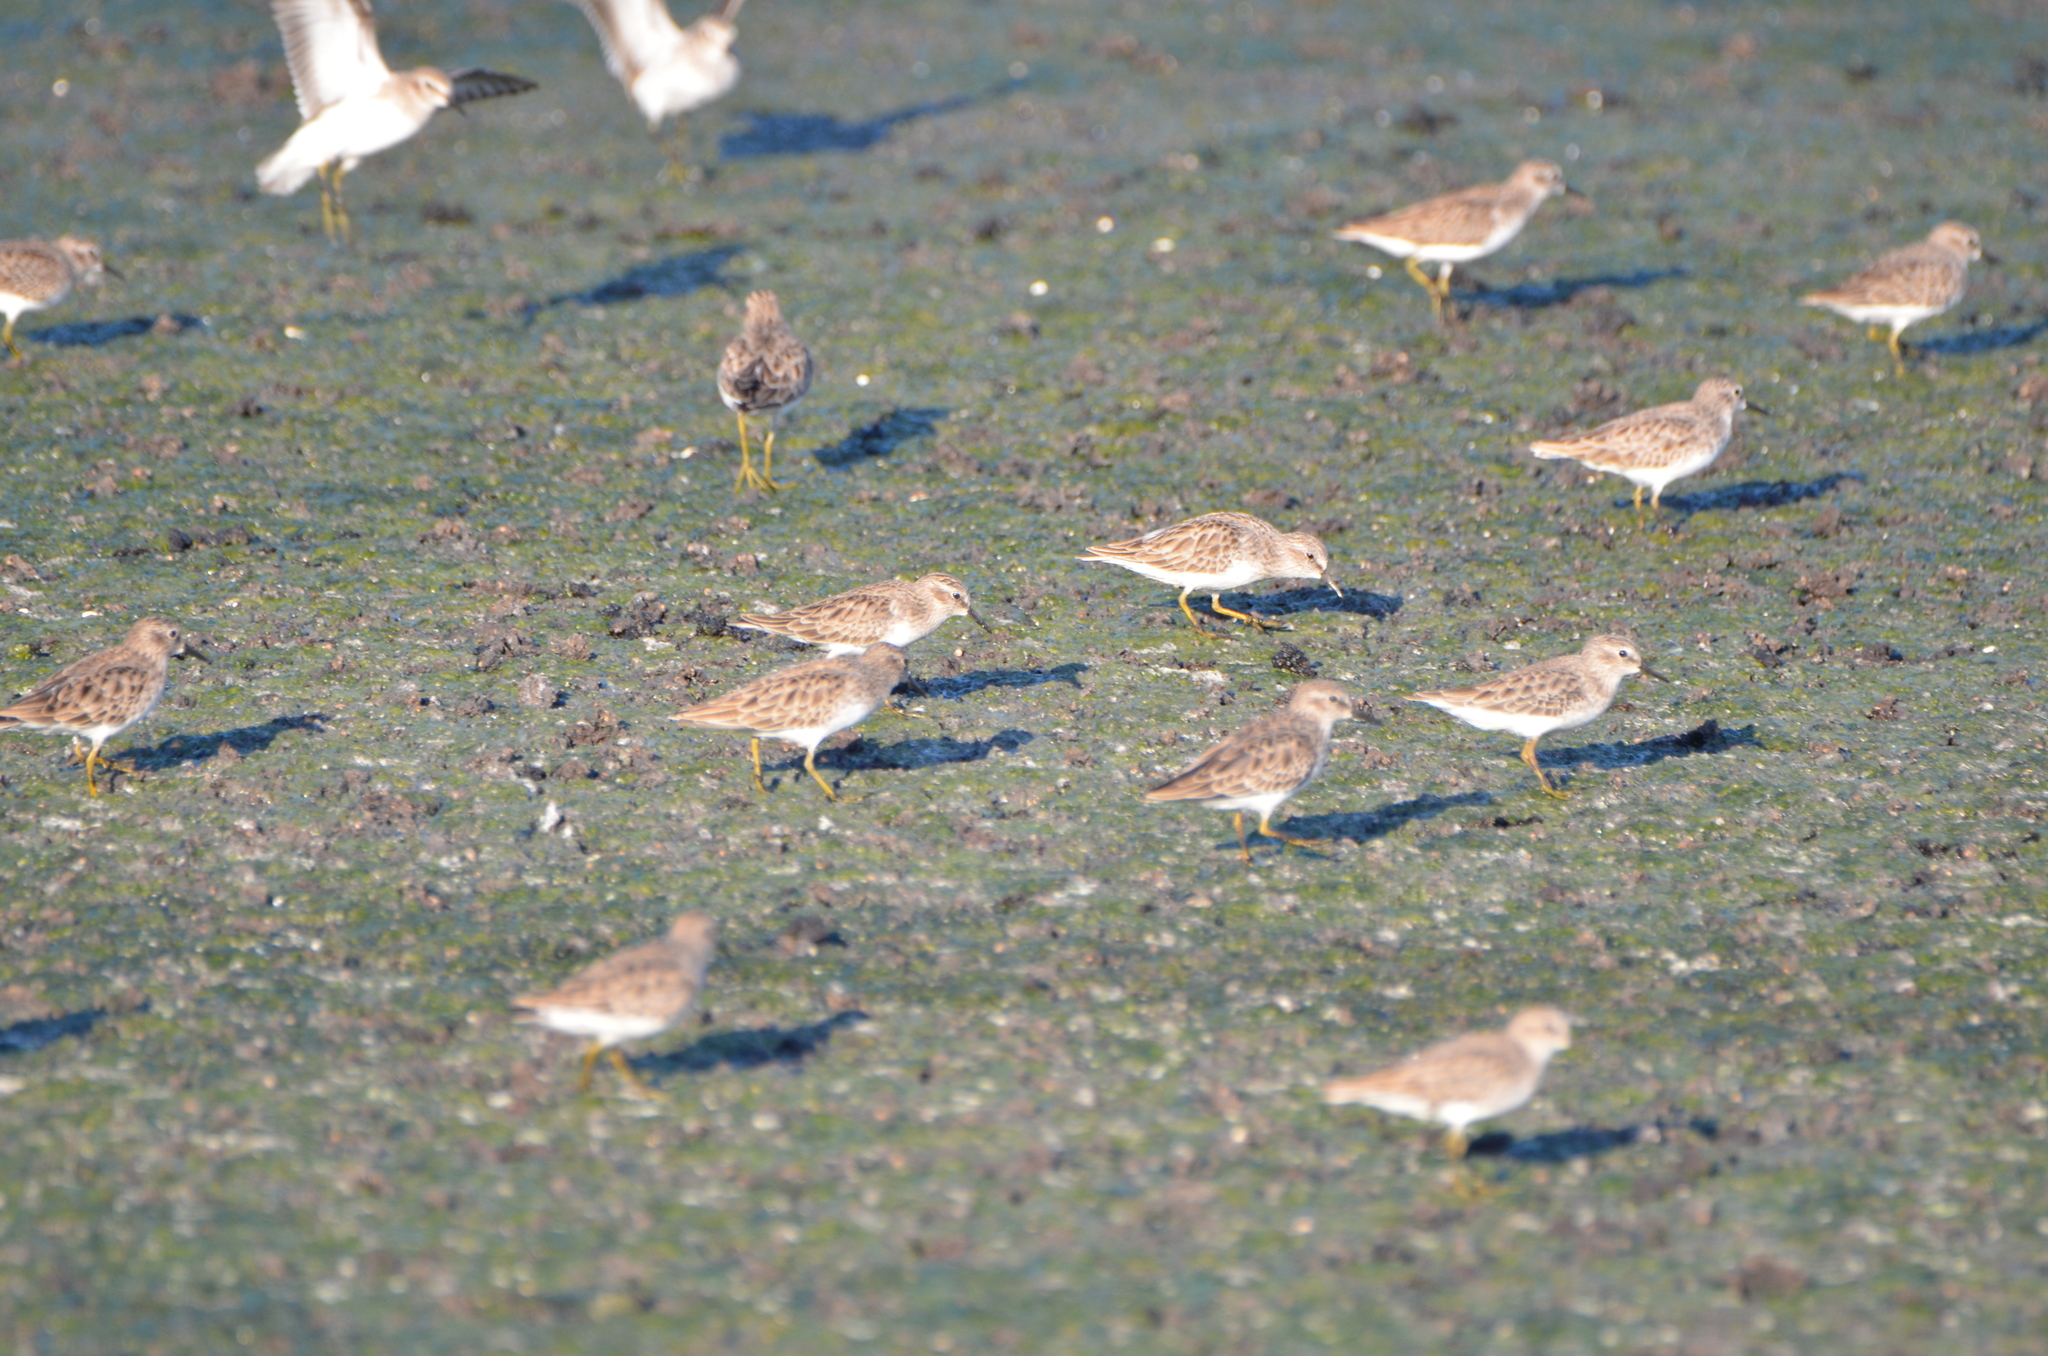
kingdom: Animalia
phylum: Chordata
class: Aves
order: Charadriiformes
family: Scolopacidae
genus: Calidris
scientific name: Calidris minutilla
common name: Least sandpiper
